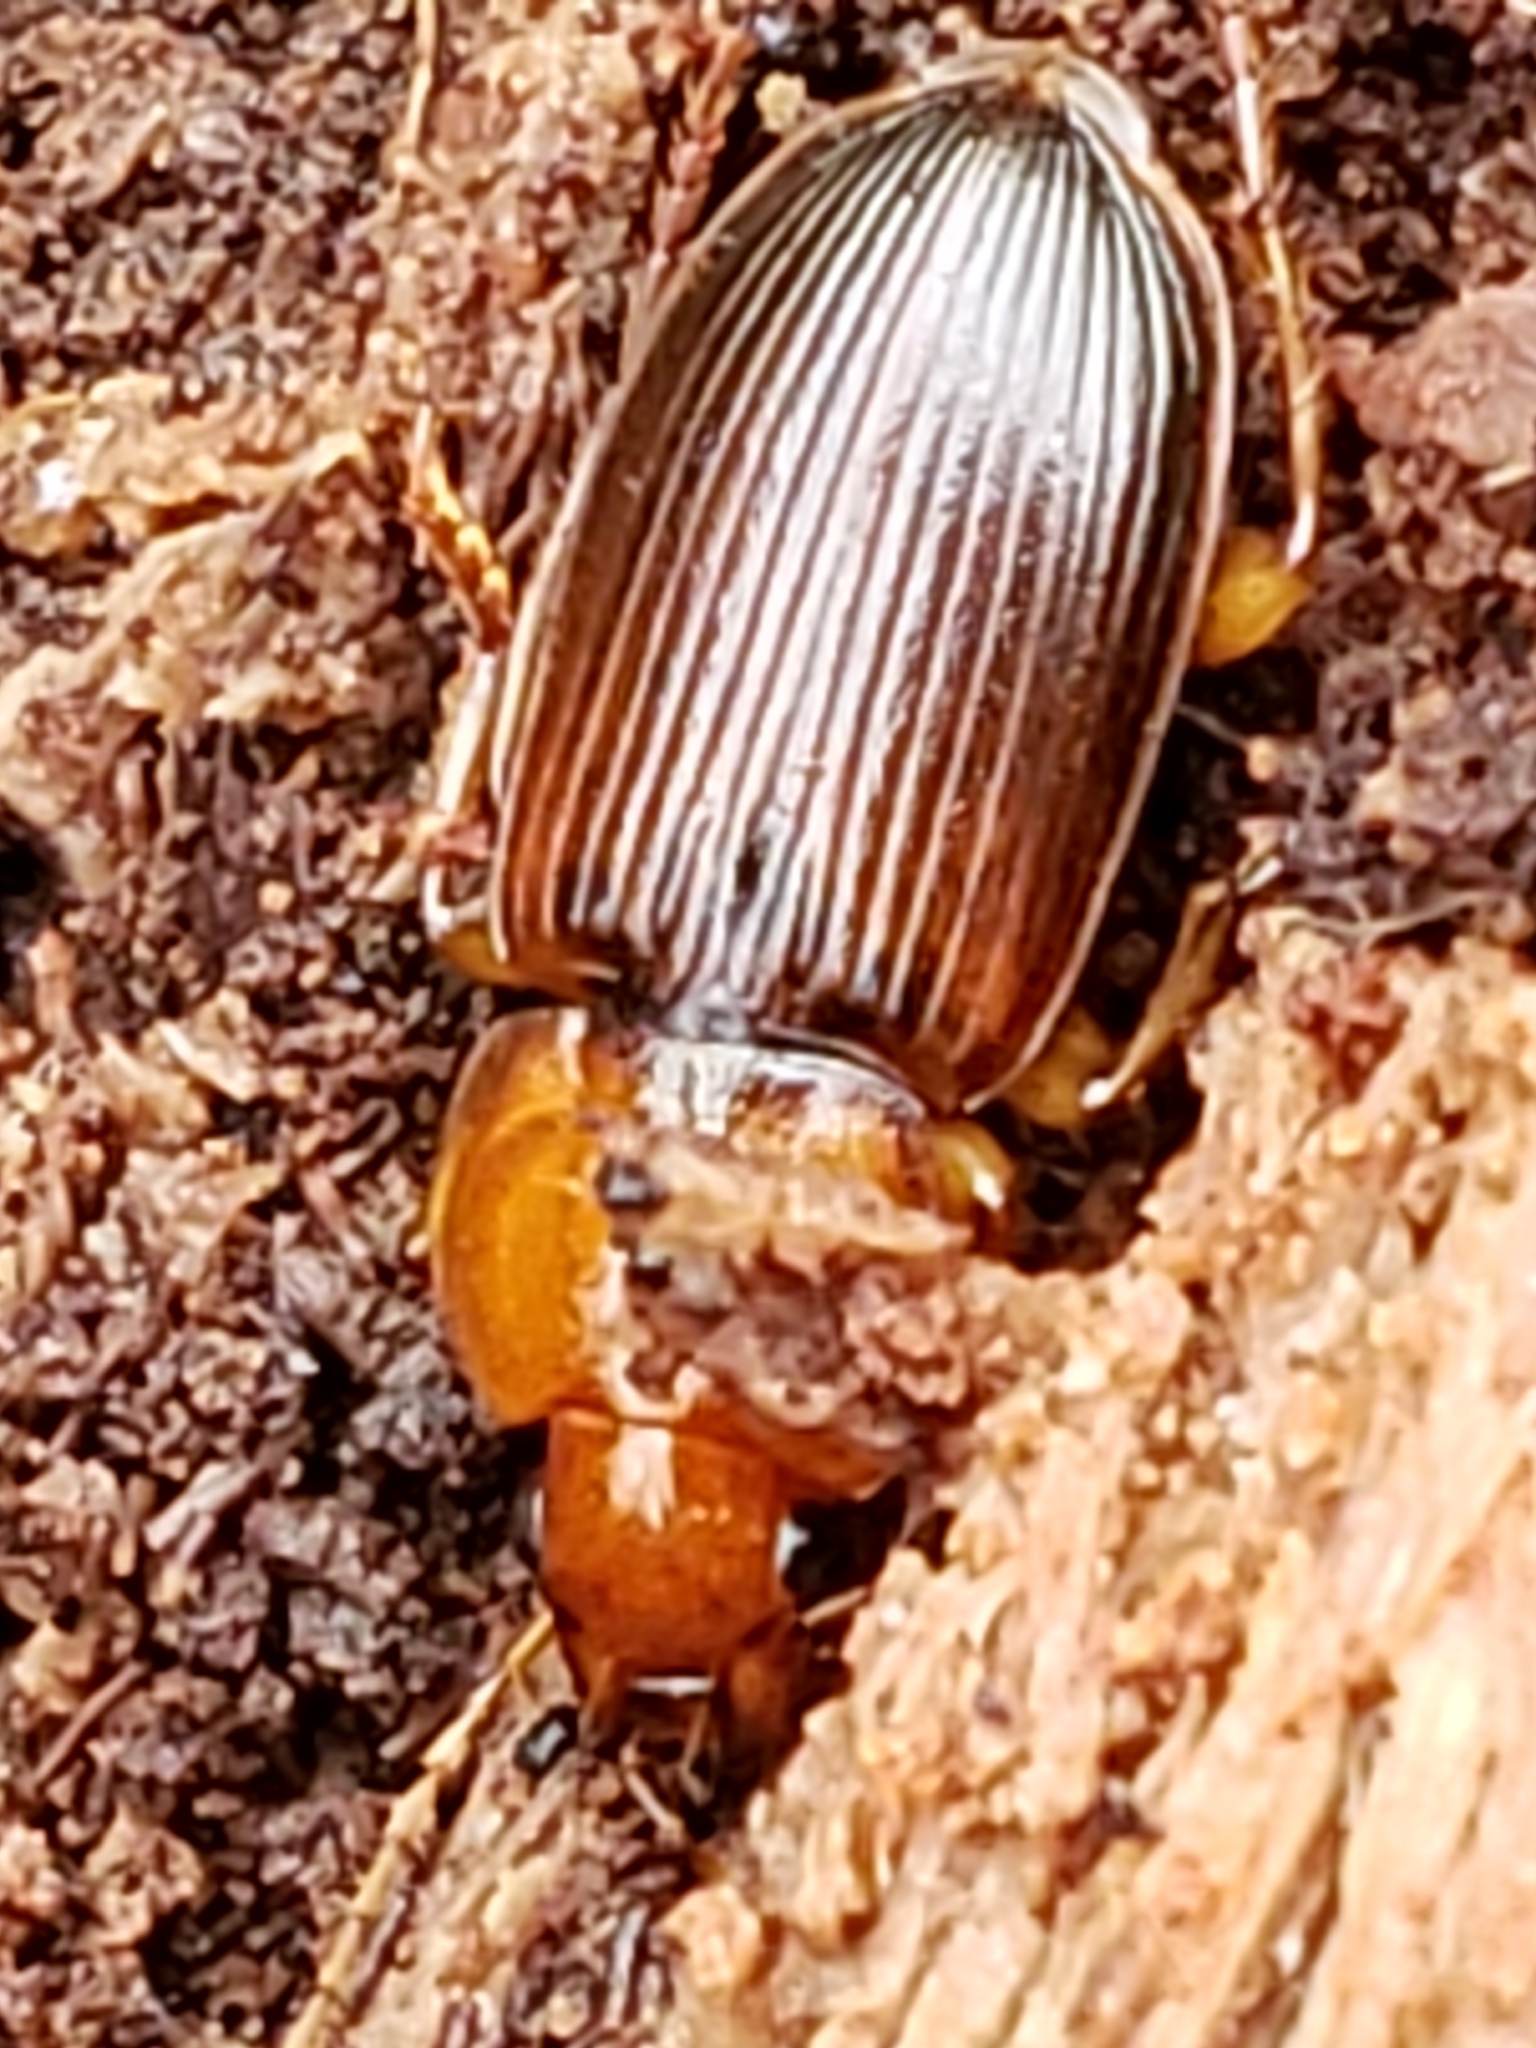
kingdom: Animalia
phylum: Arthropoda
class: Insecta
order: Coleoptera
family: Carabidae
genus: Amphasia
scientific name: Amphasia interstitialis
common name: Red-headed ground beetle
